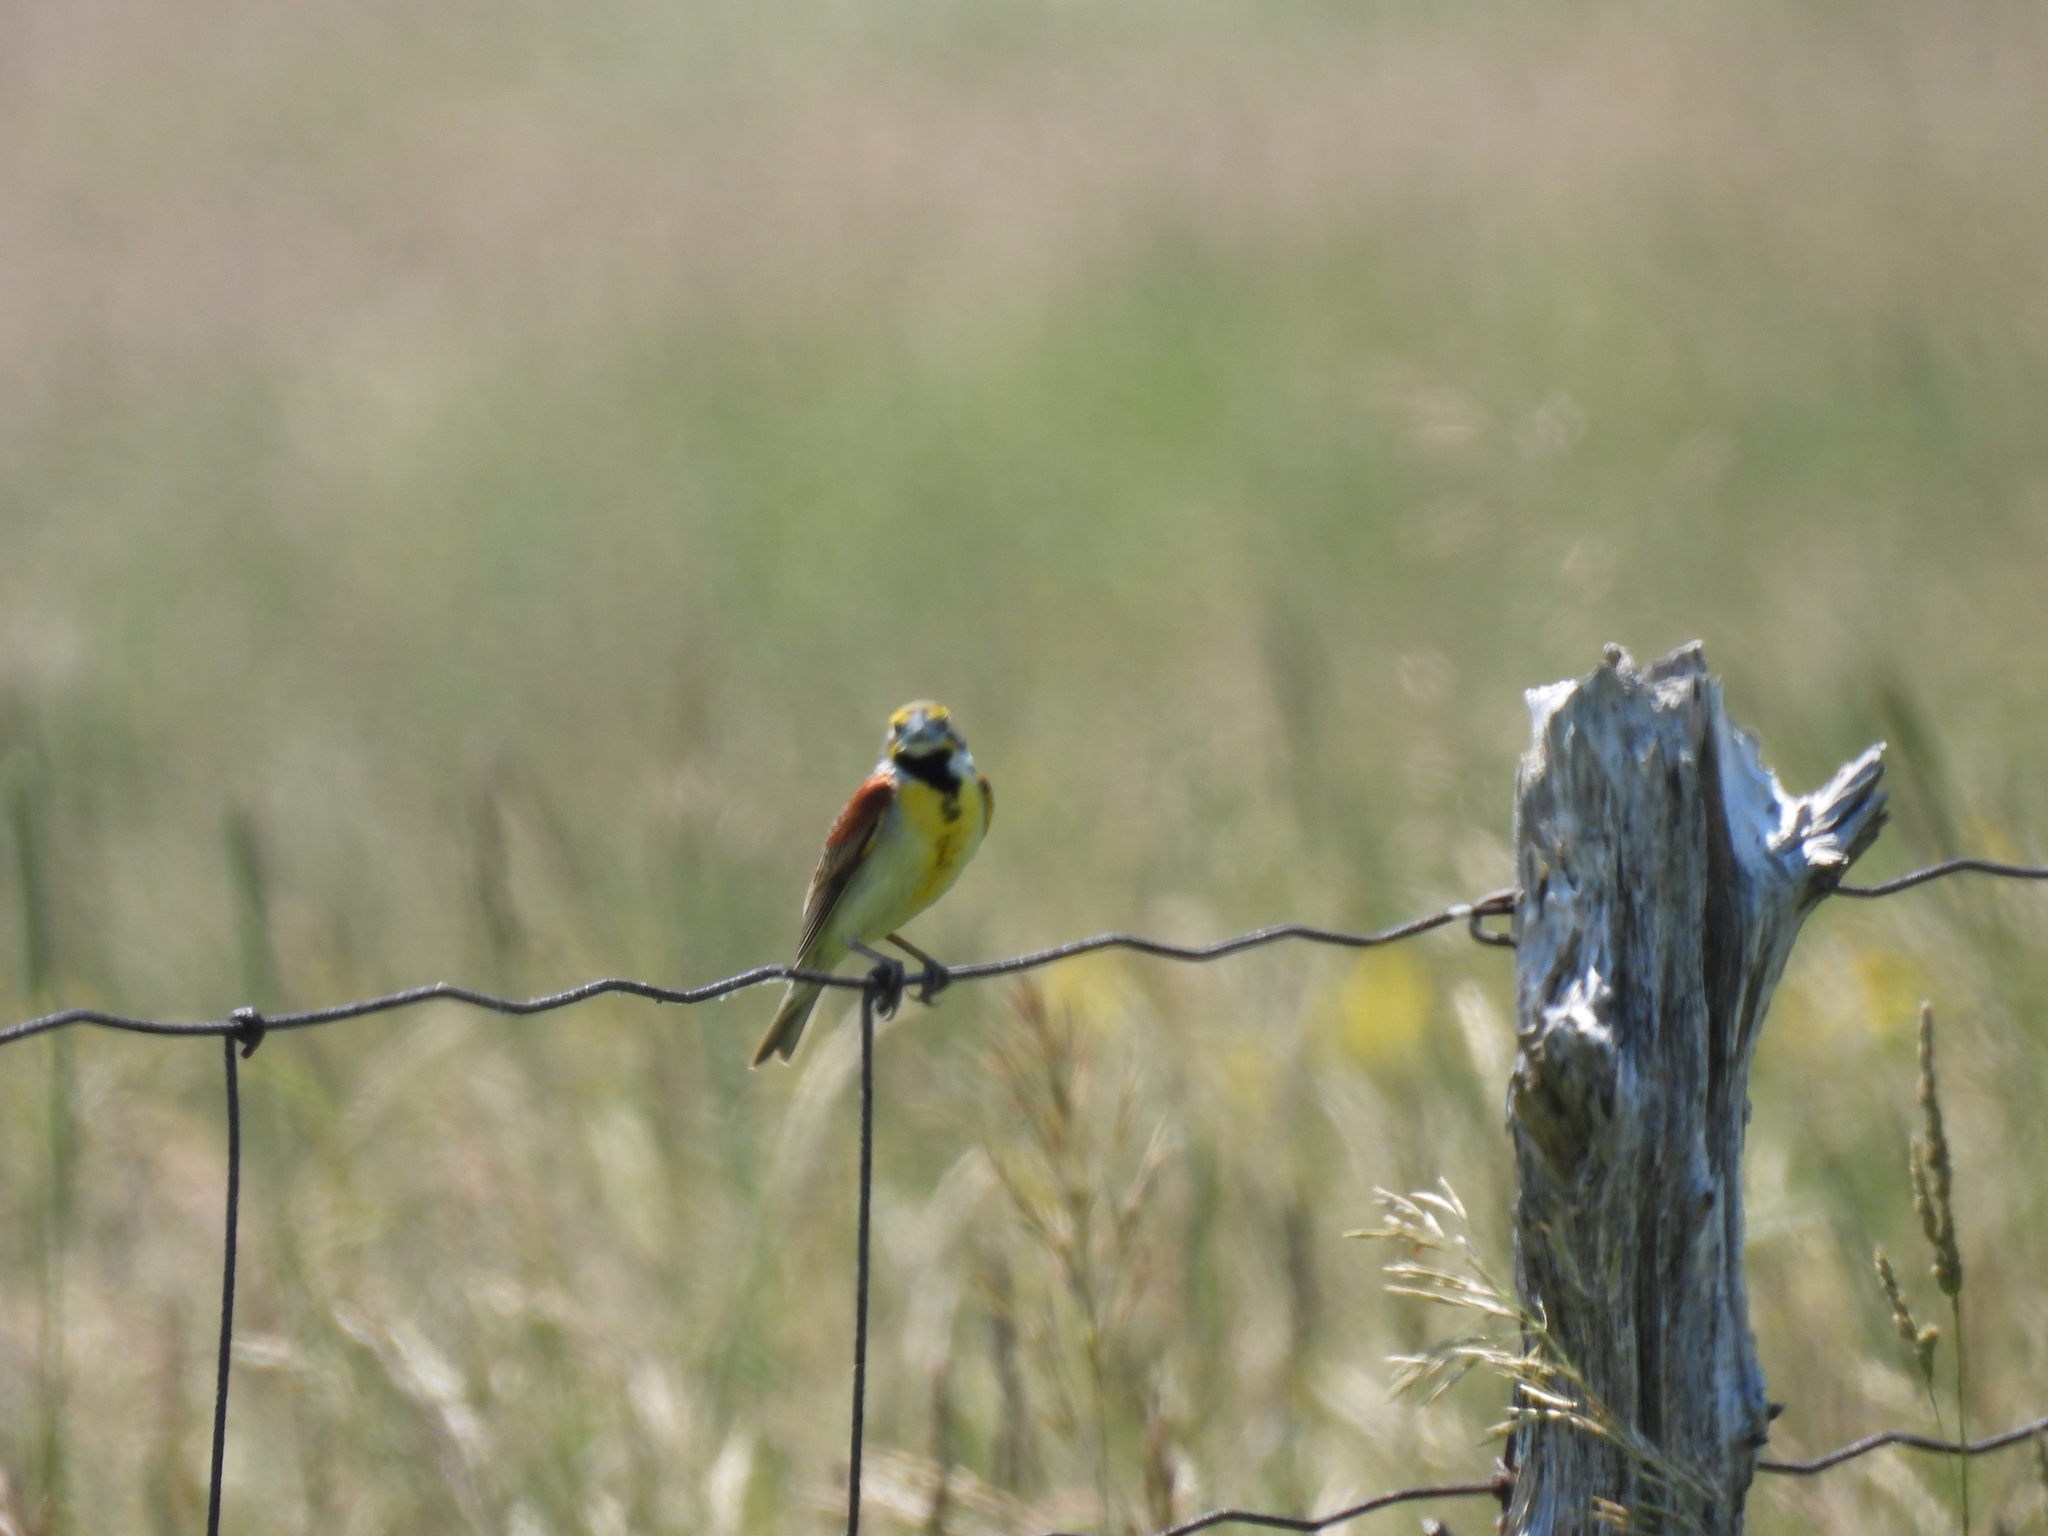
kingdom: Animalia
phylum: Chordata
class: Aves
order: Passeriformes
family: Cardinalidae
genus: Spiza
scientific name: Spiza americana
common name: Dickcissel
